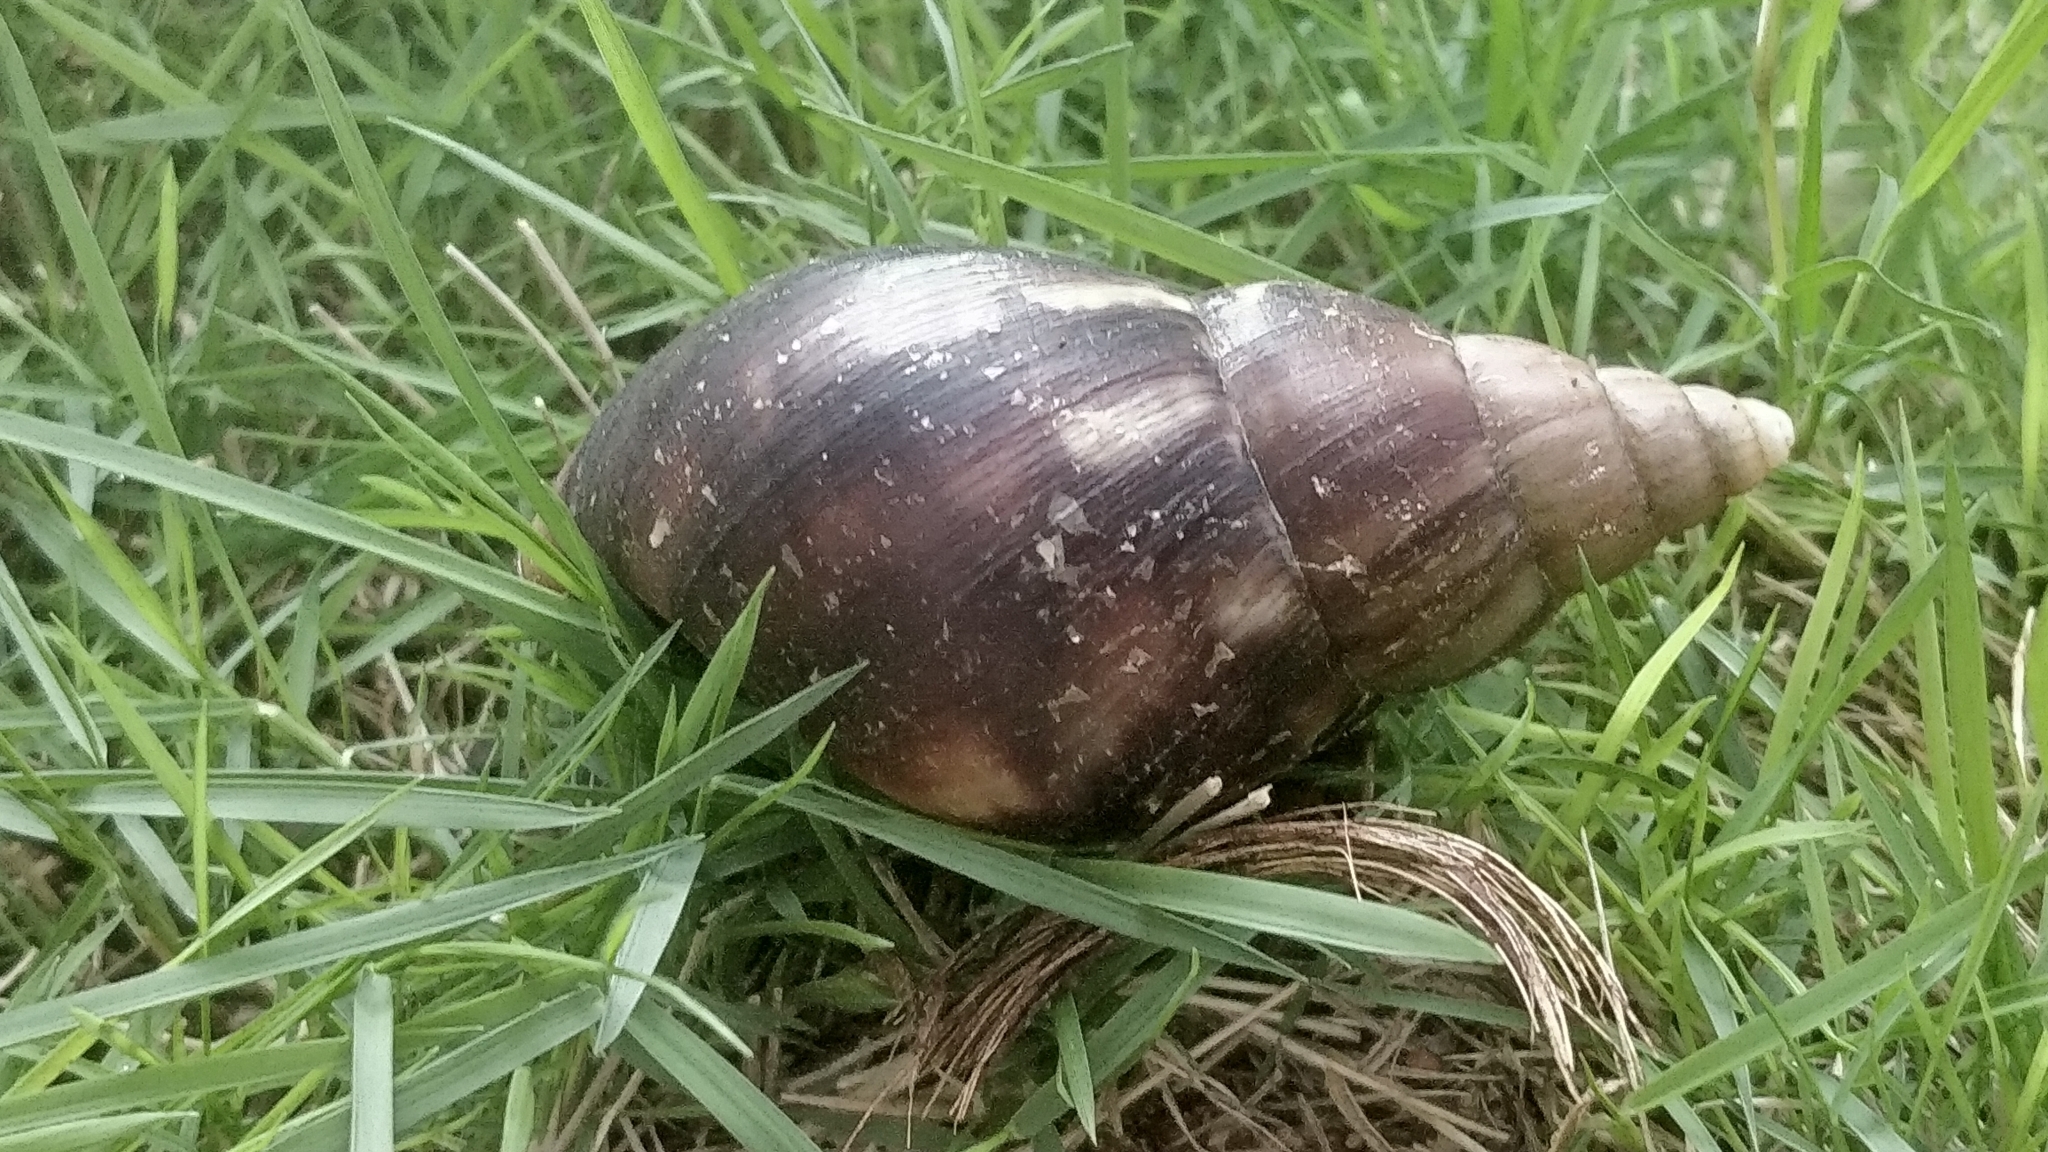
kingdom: Animalia
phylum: Mollusca
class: Gastropoda
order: Stylommatophora
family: Achatinidae
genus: Lissachatina
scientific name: Lissachatina fulica
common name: Giant african snail
